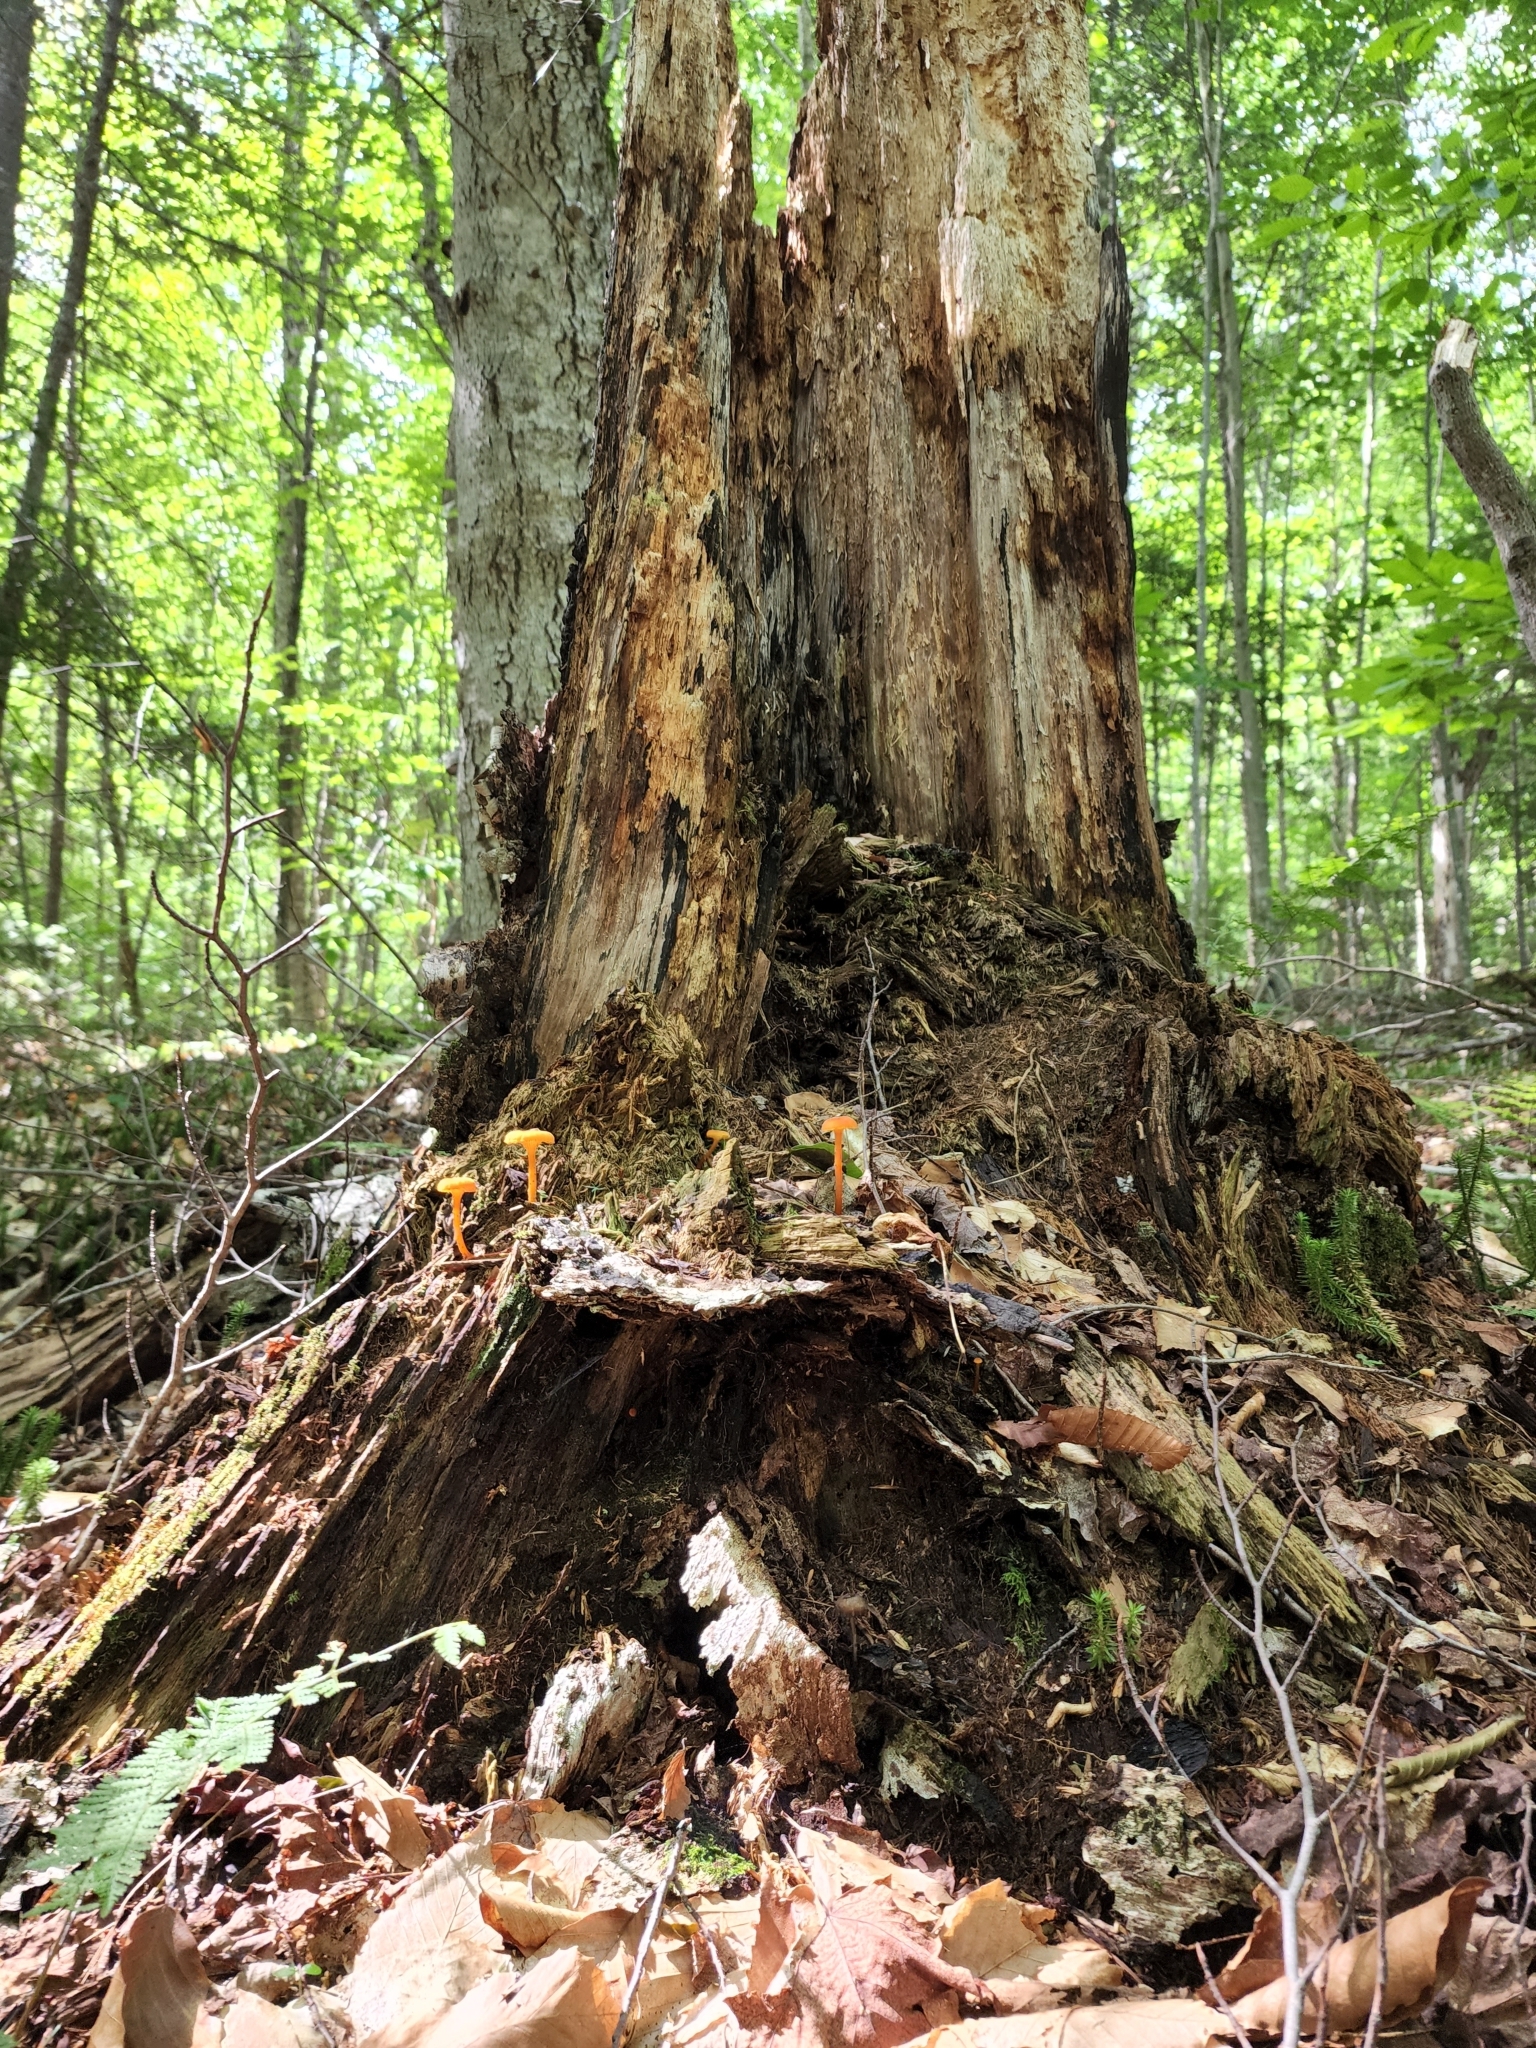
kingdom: Fungi
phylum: Basidiomycota
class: Agaricomycetes
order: Agaricales
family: Hygrophoraceae
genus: Hygrocybe
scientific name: Hygrocybe cantharellus
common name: Goblet waxcap
